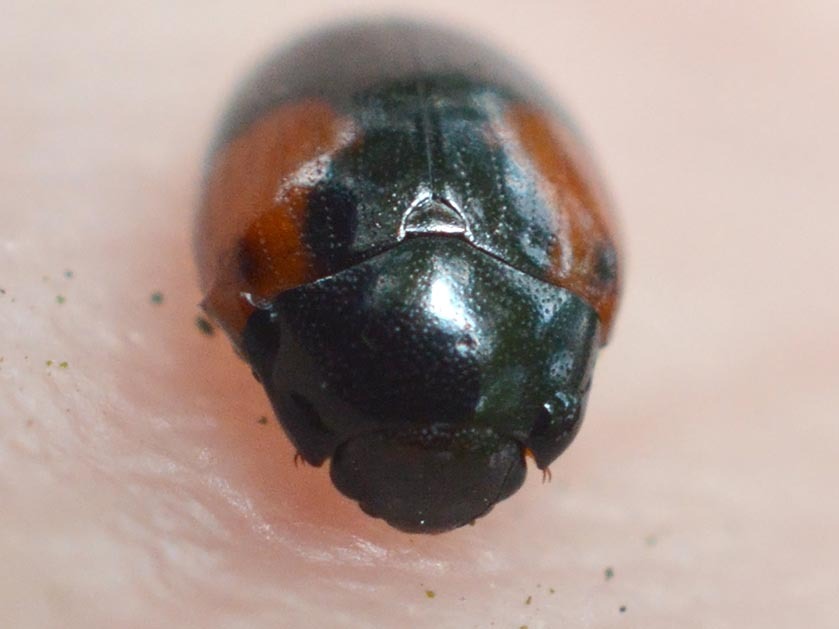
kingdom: Animalia
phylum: Arthropoda
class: Insecta
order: Coleoptera
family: Erotylidae
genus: Tritoma
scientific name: Tritoma bipustulata
